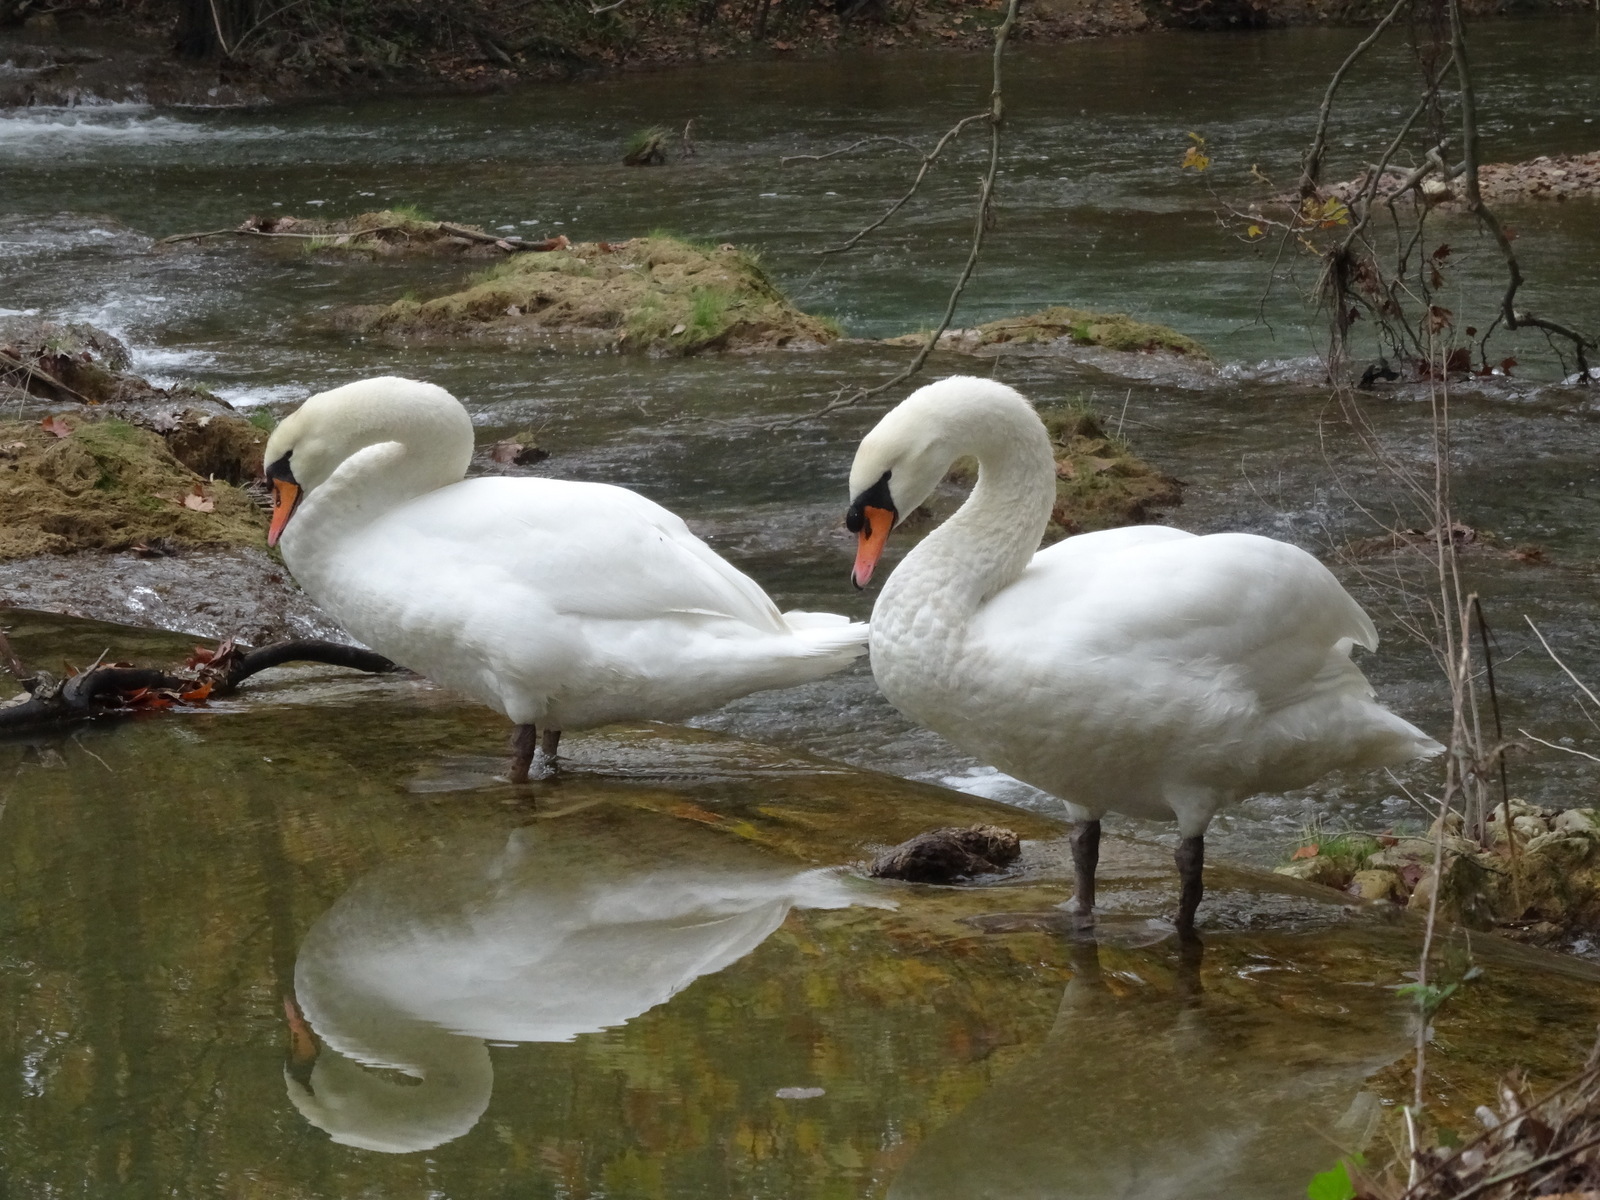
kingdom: Animalia
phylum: Chordata
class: Aves
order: Anseriformes
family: Anatidae
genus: Cygnus
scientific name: Cygnus olor
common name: Mute swan
